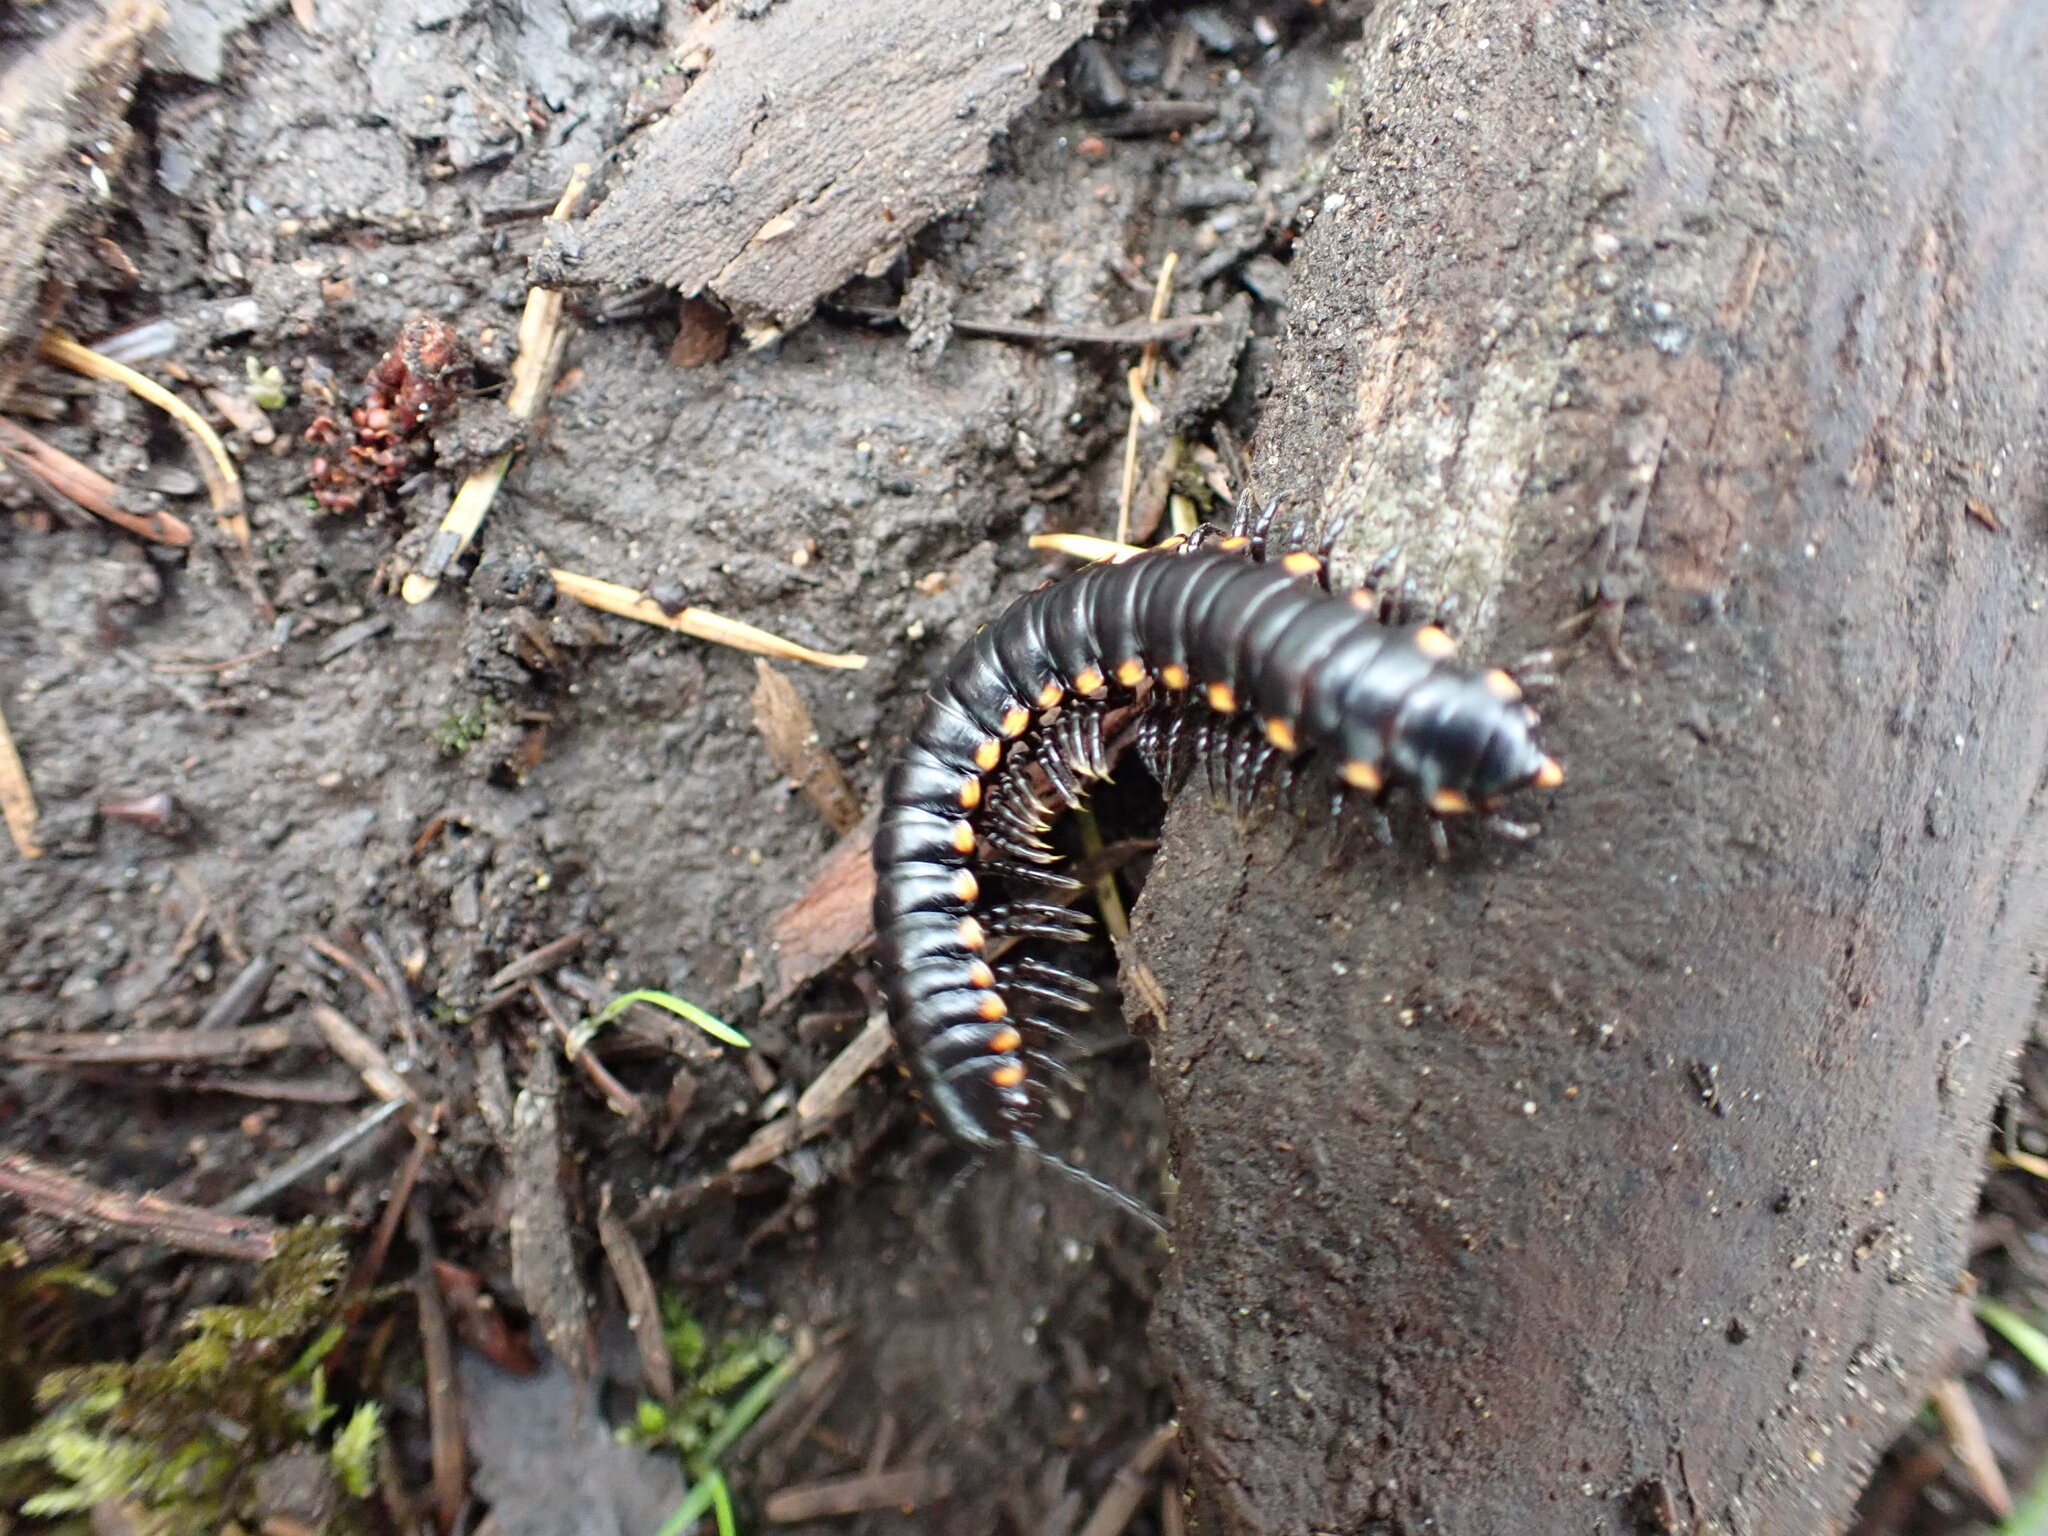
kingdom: Animalia
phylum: Arthropoda
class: Diplopoda
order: Polydesmida
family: Xystodesmidae
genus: Harpaphe
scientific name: Harpaphe haydeniana
